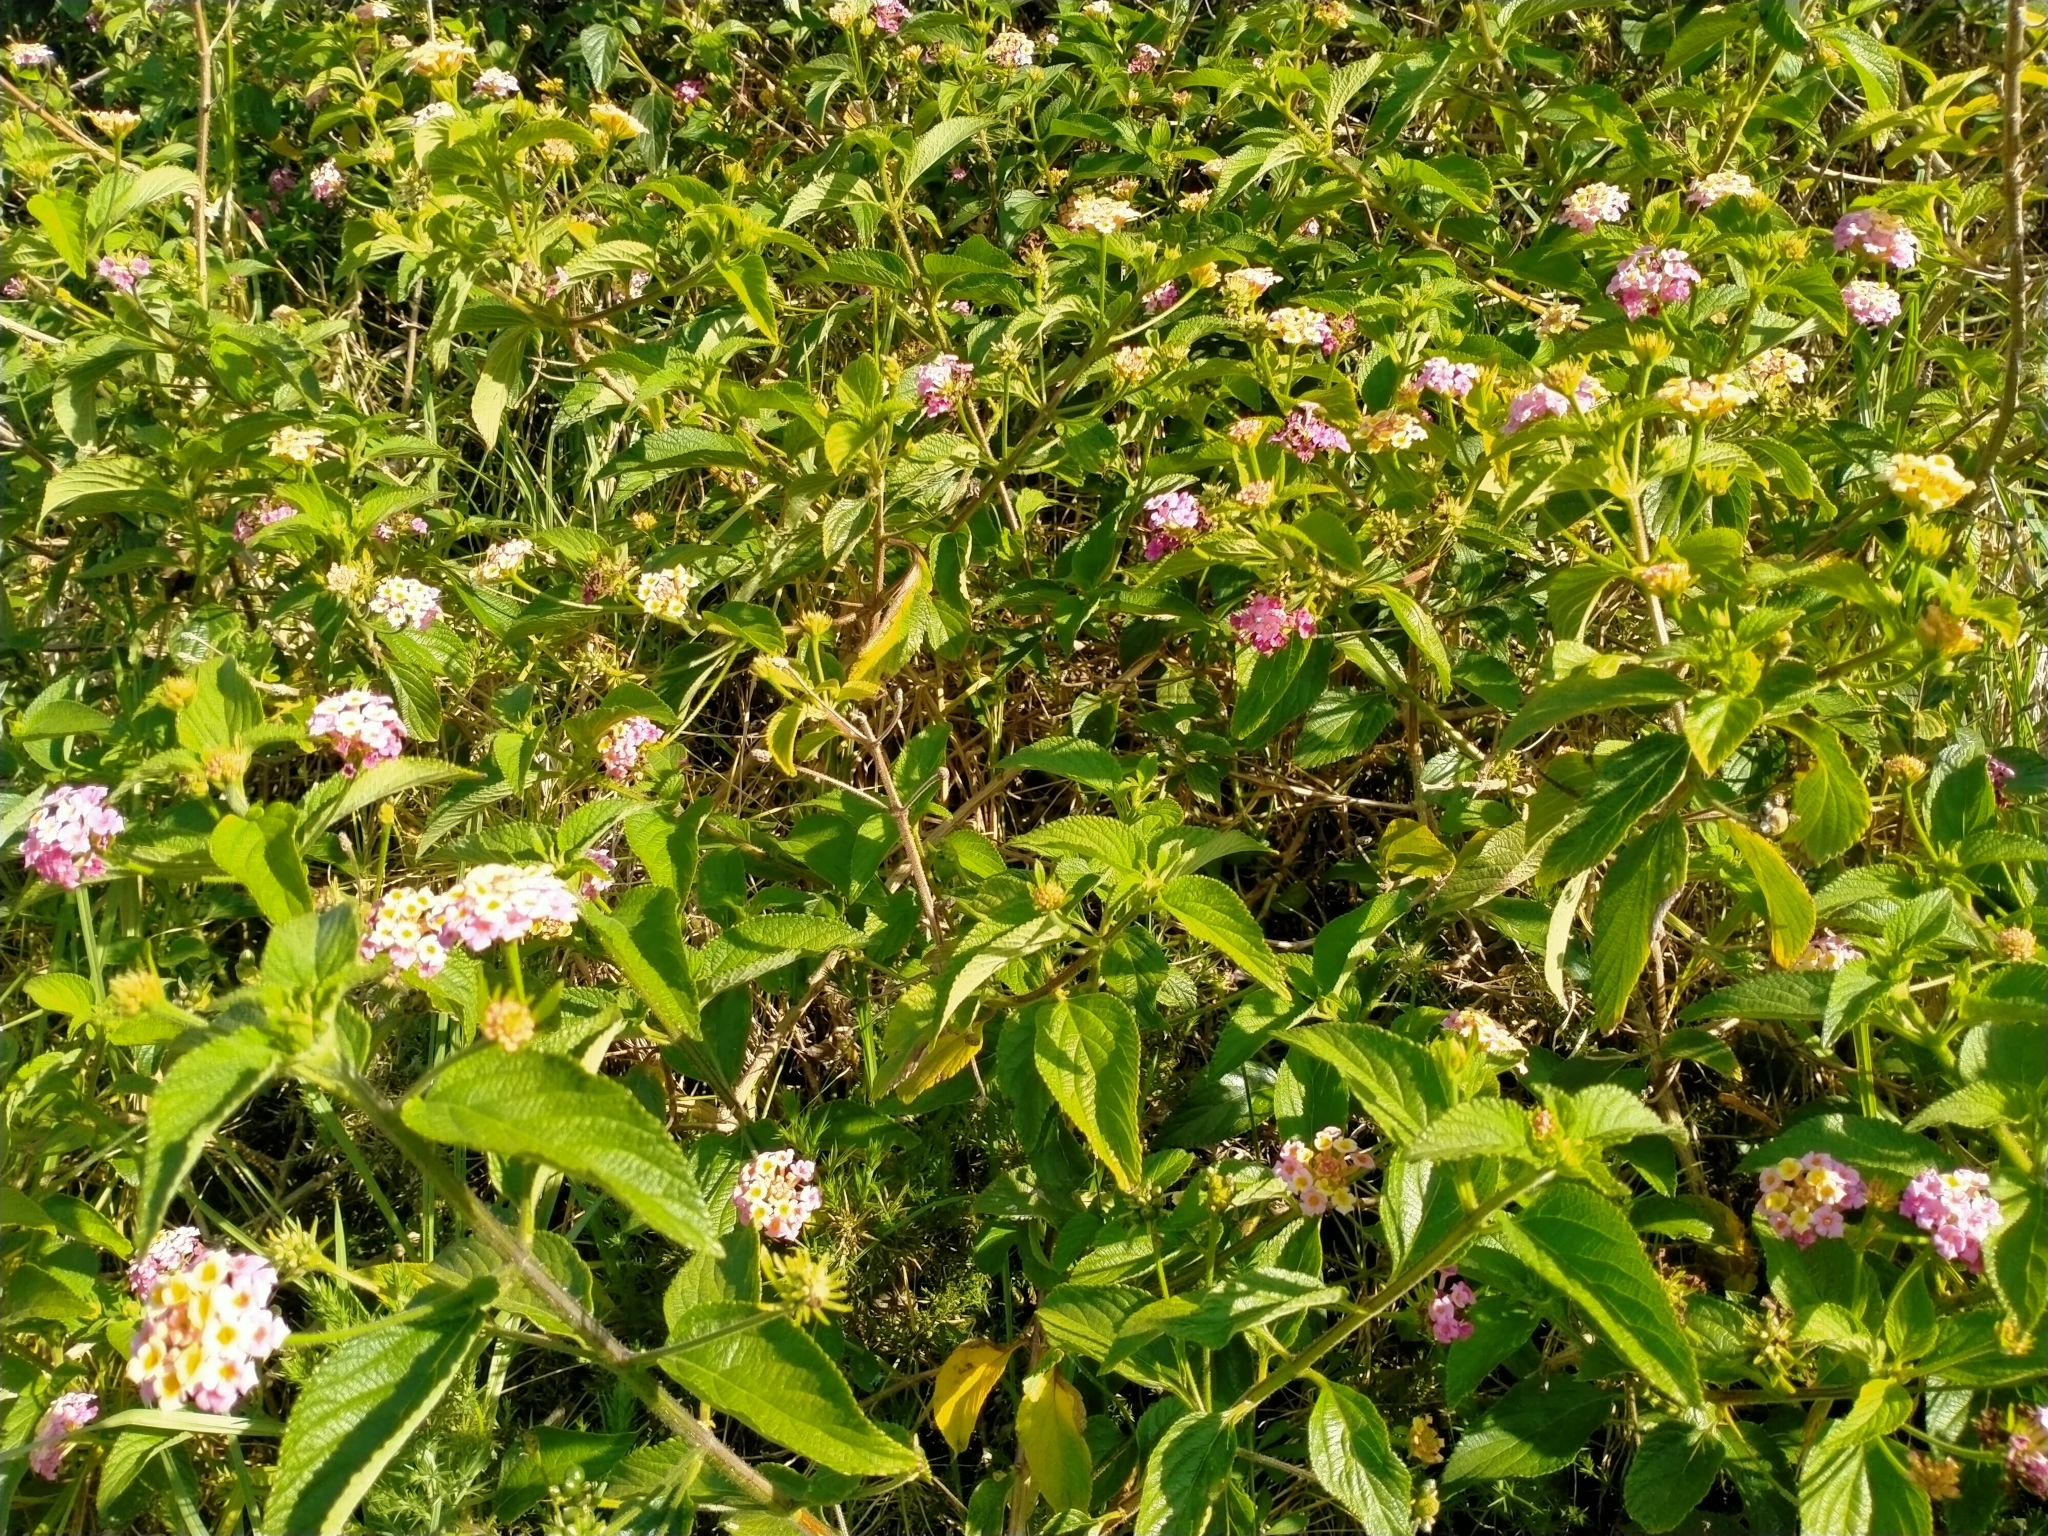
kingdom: Plantae
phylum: Tracheophyta
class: Magnoliopsida
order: Lamiales
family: Verbenaceae
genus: Lantana
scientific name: Lantana camara
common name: Lantana
